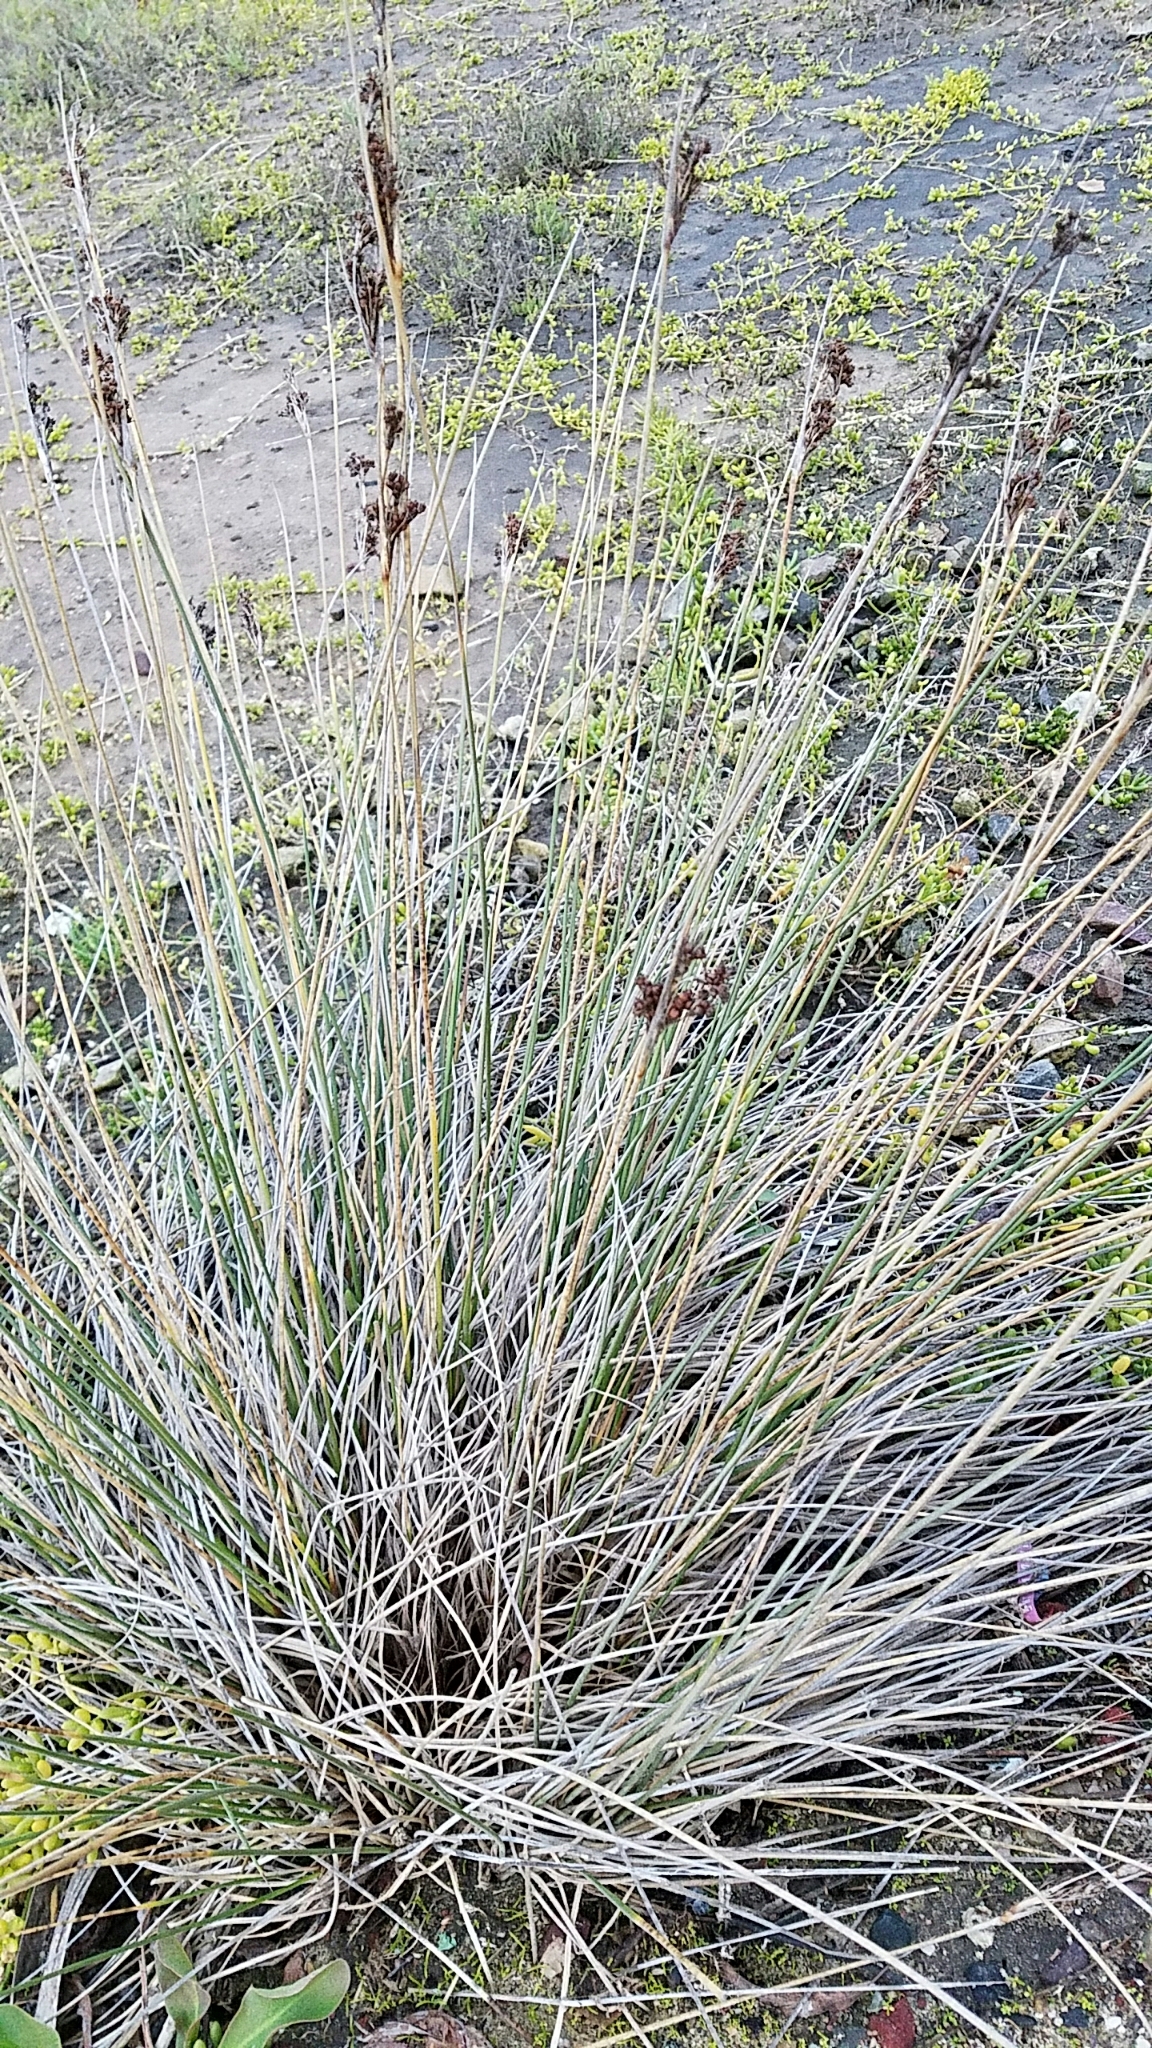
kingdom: Plantae
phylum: Tracheophyta
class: Liliopsida
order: Poales
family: Juncaceae
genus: Juncus
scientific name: Juncus acutus
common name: Sharp rush
